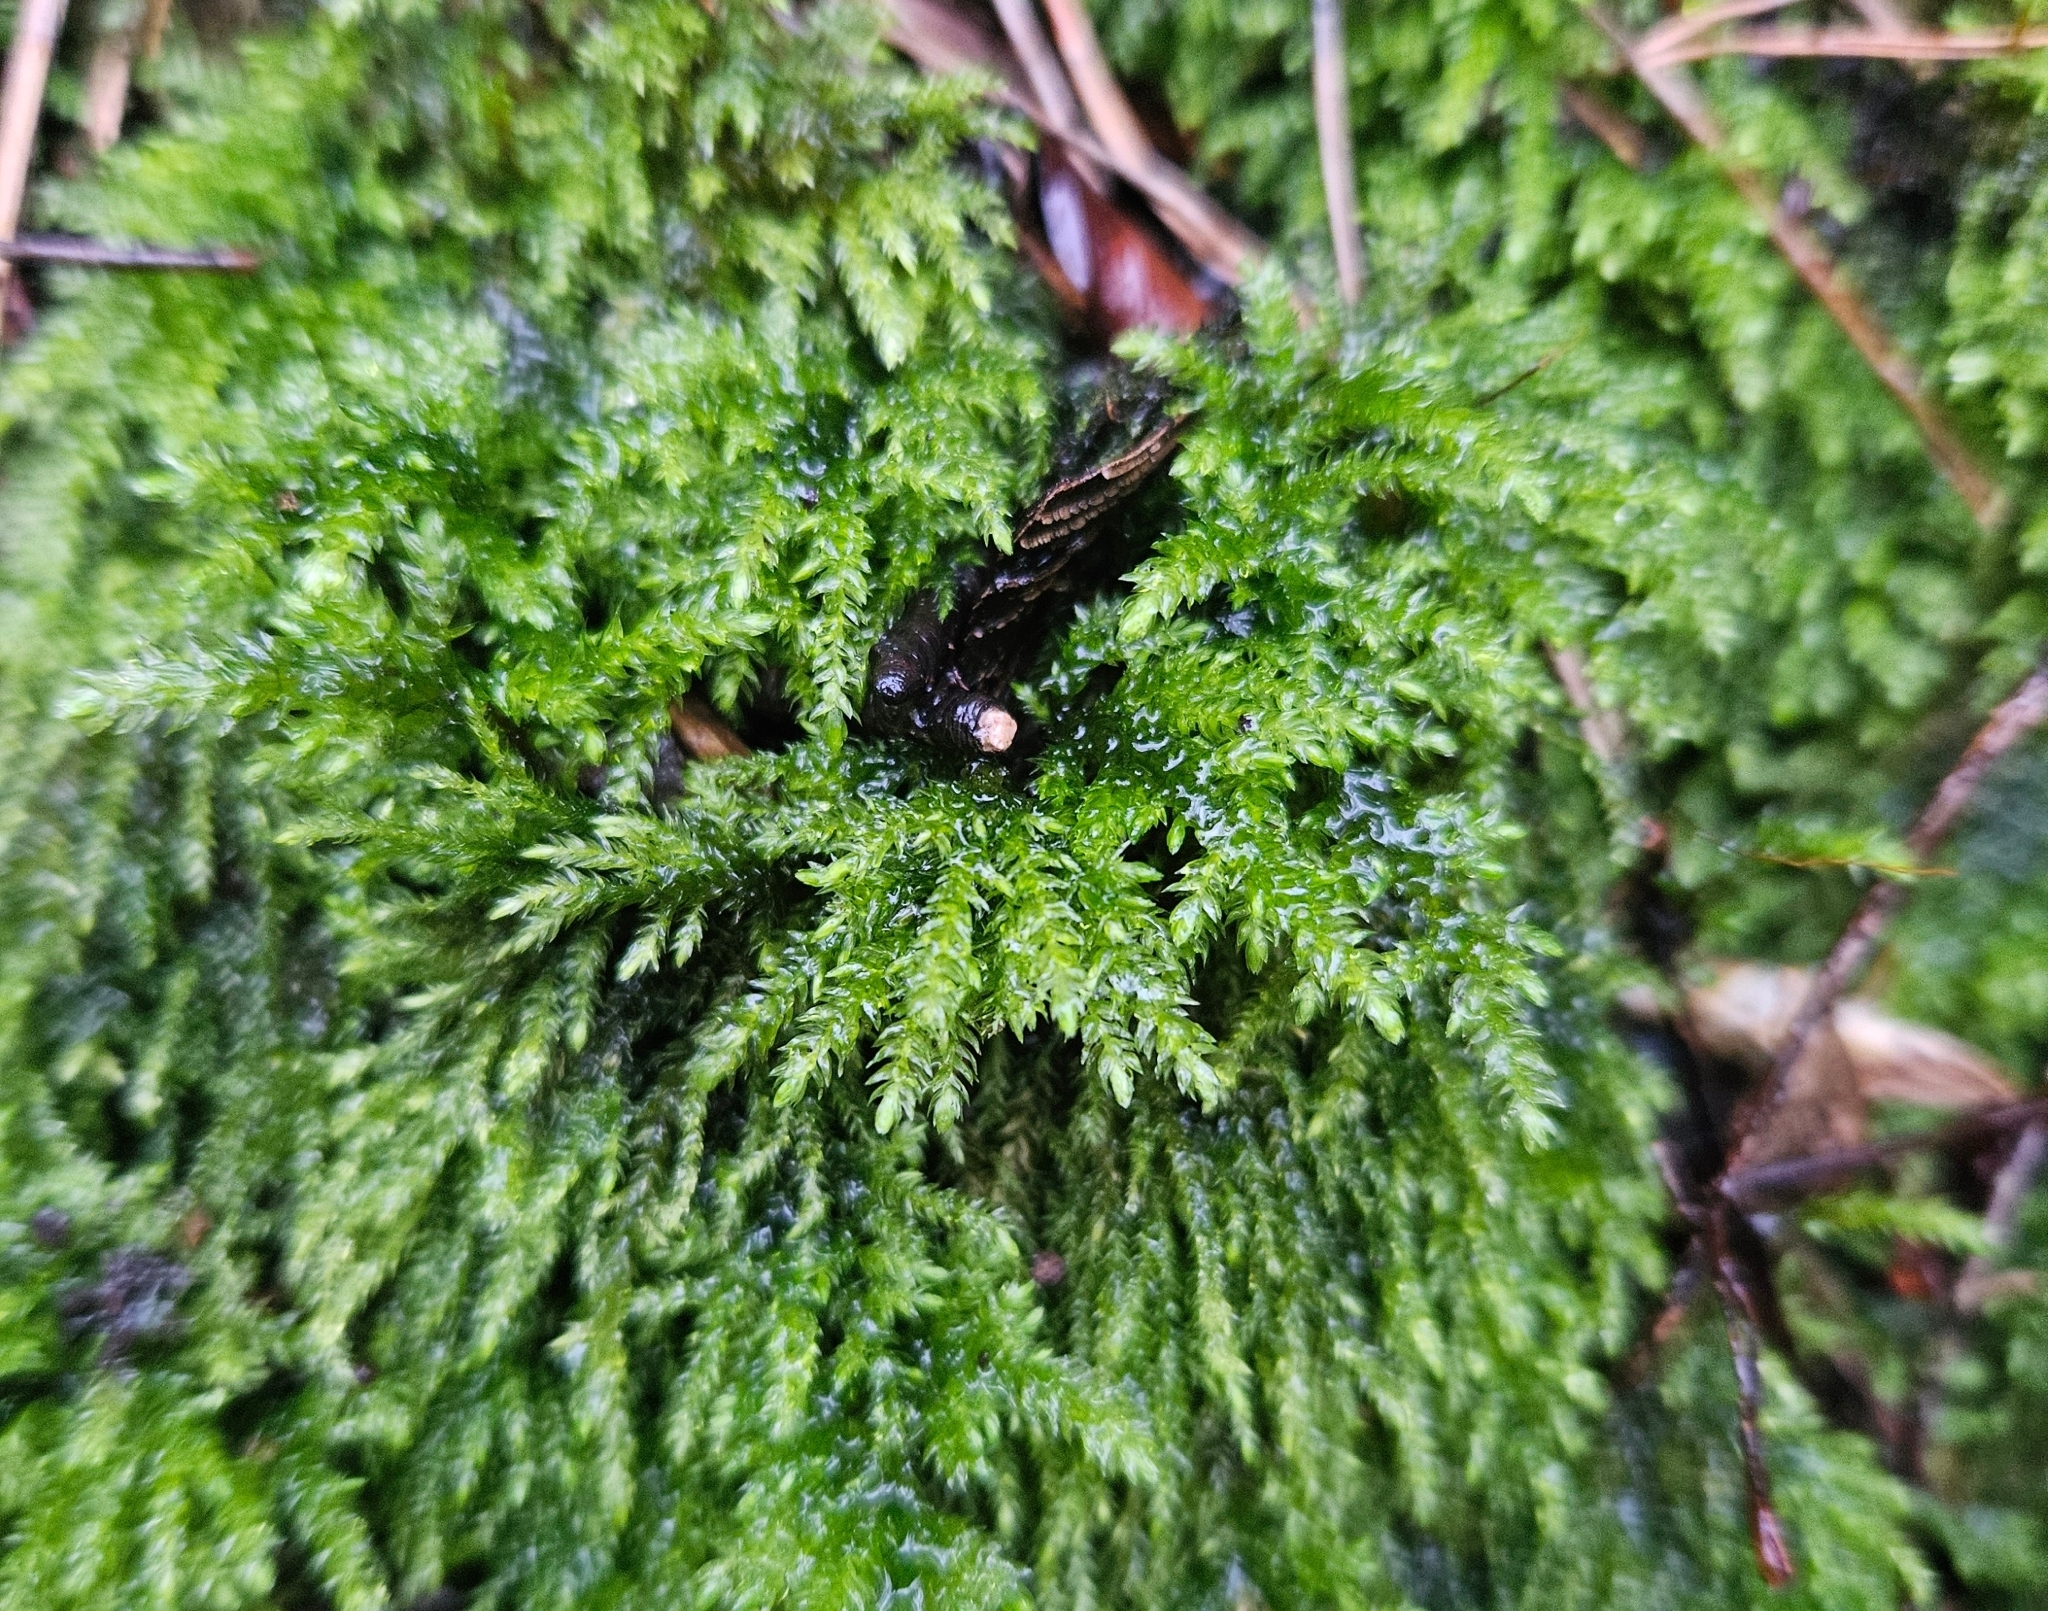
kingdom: Plantae
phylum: Bryophyta
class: Bryopsida
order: Hypnales
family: Neckeraceae
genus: Thamnobryum
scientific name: Thamnobryum alopecurum
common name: Fox-tail feather-moss
